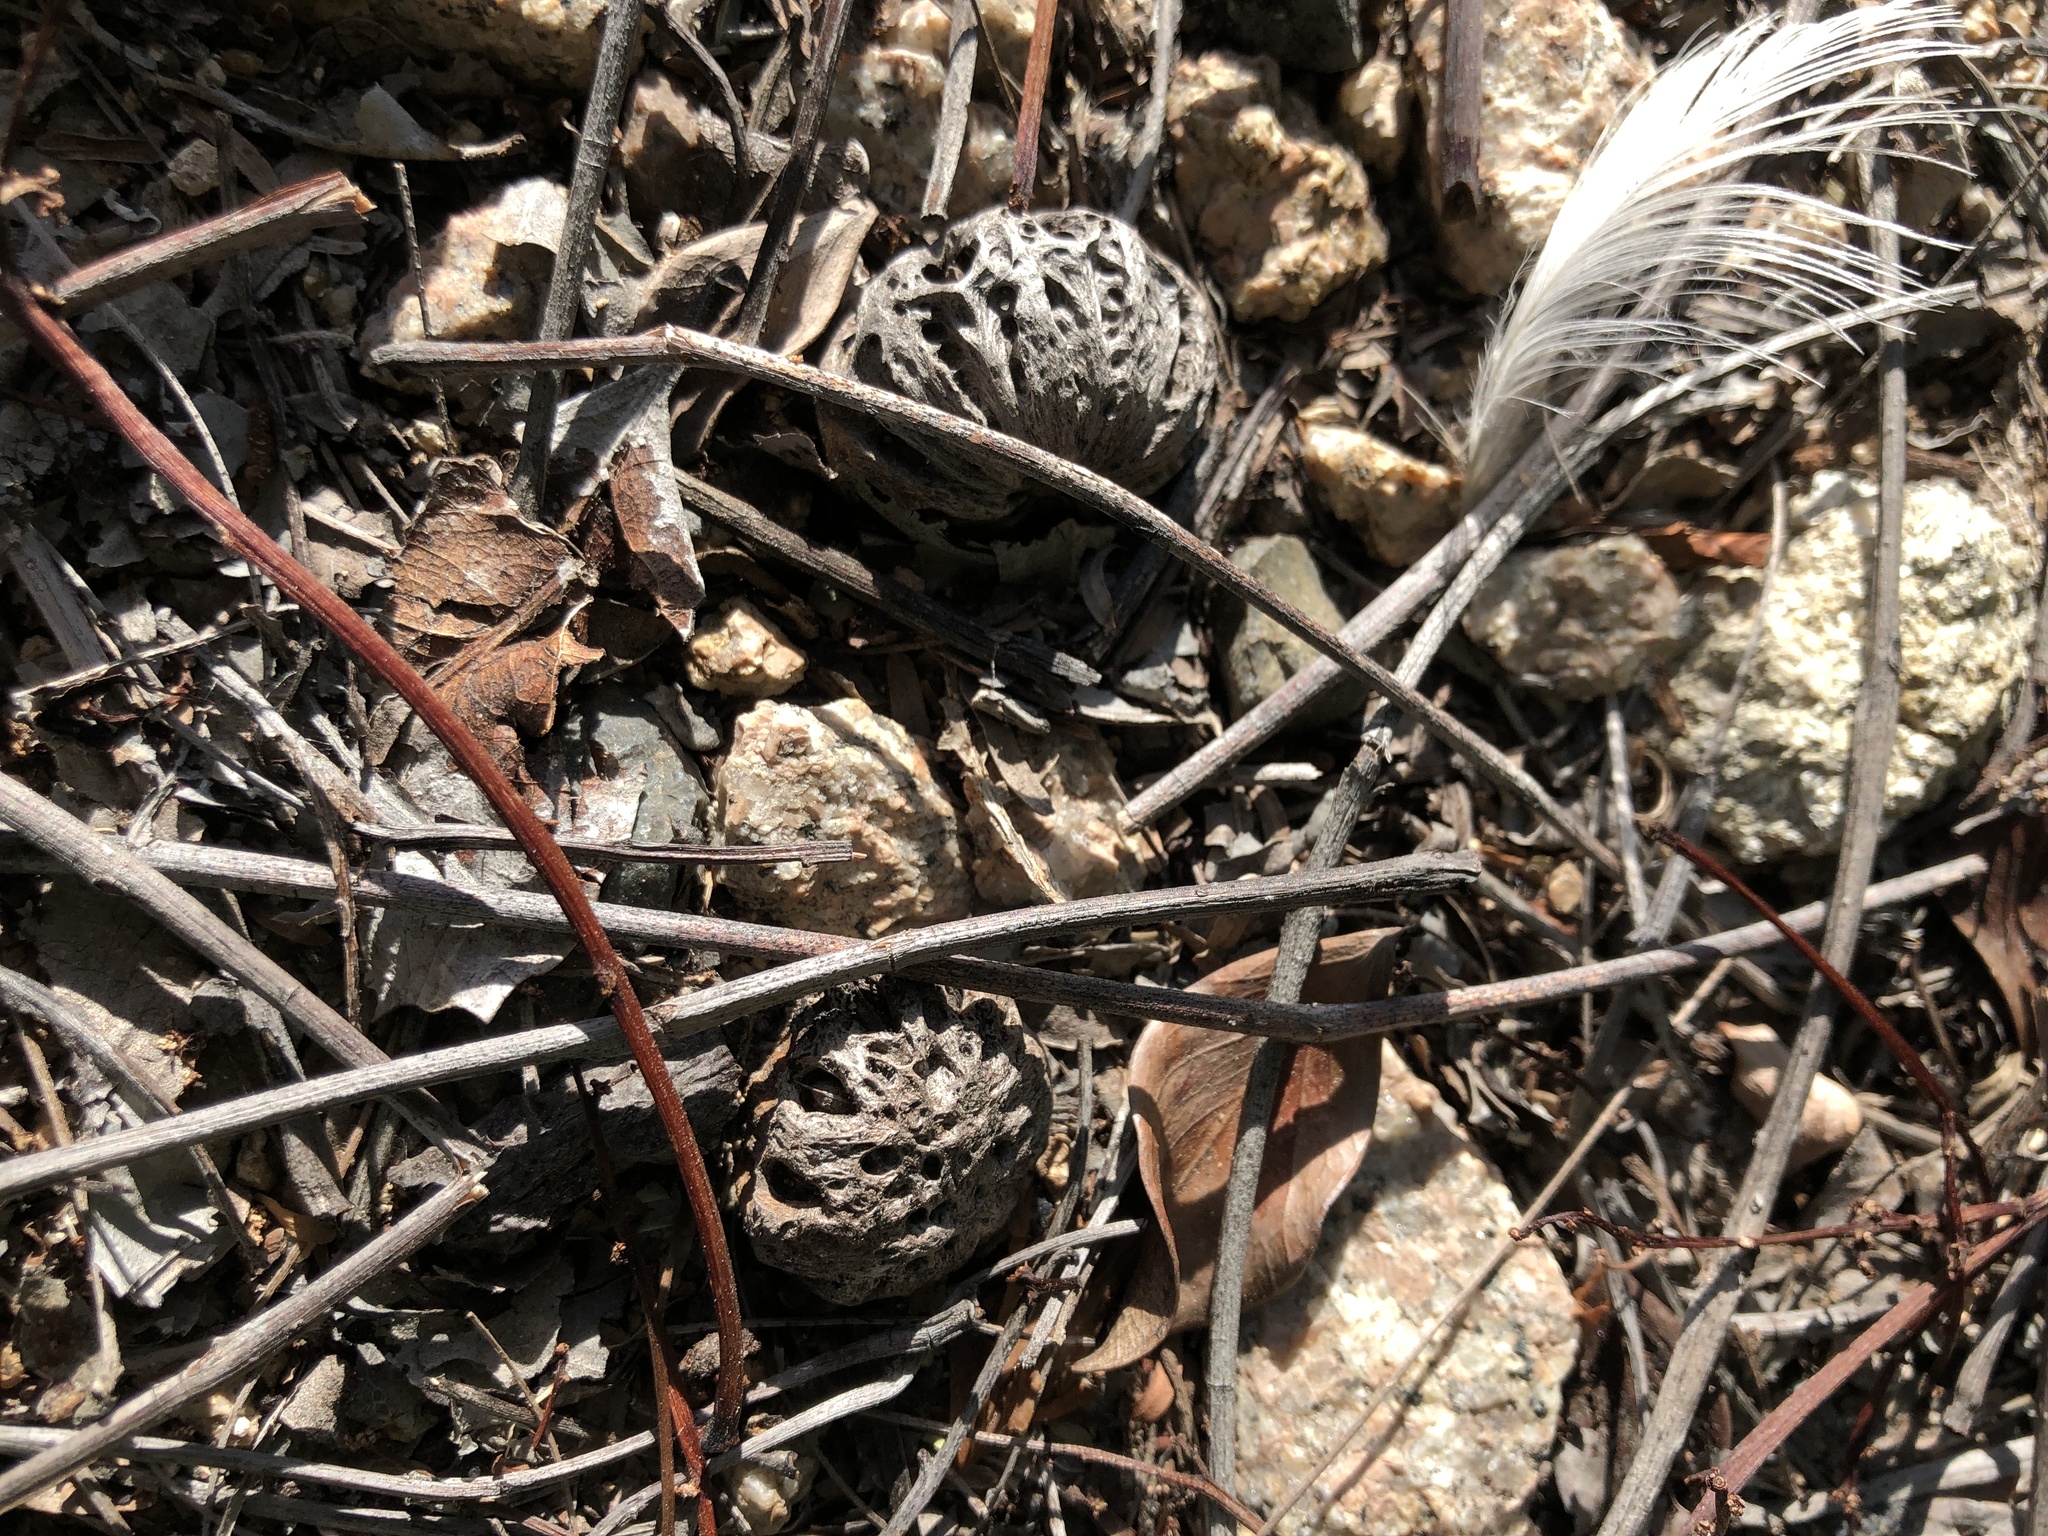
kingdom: Plantae
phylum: Tracheophyta
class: Magnoliopsida
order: Sapindales
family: Anacardiaceae
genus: Pleiogynium
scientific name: Pleiogynium timoriense
